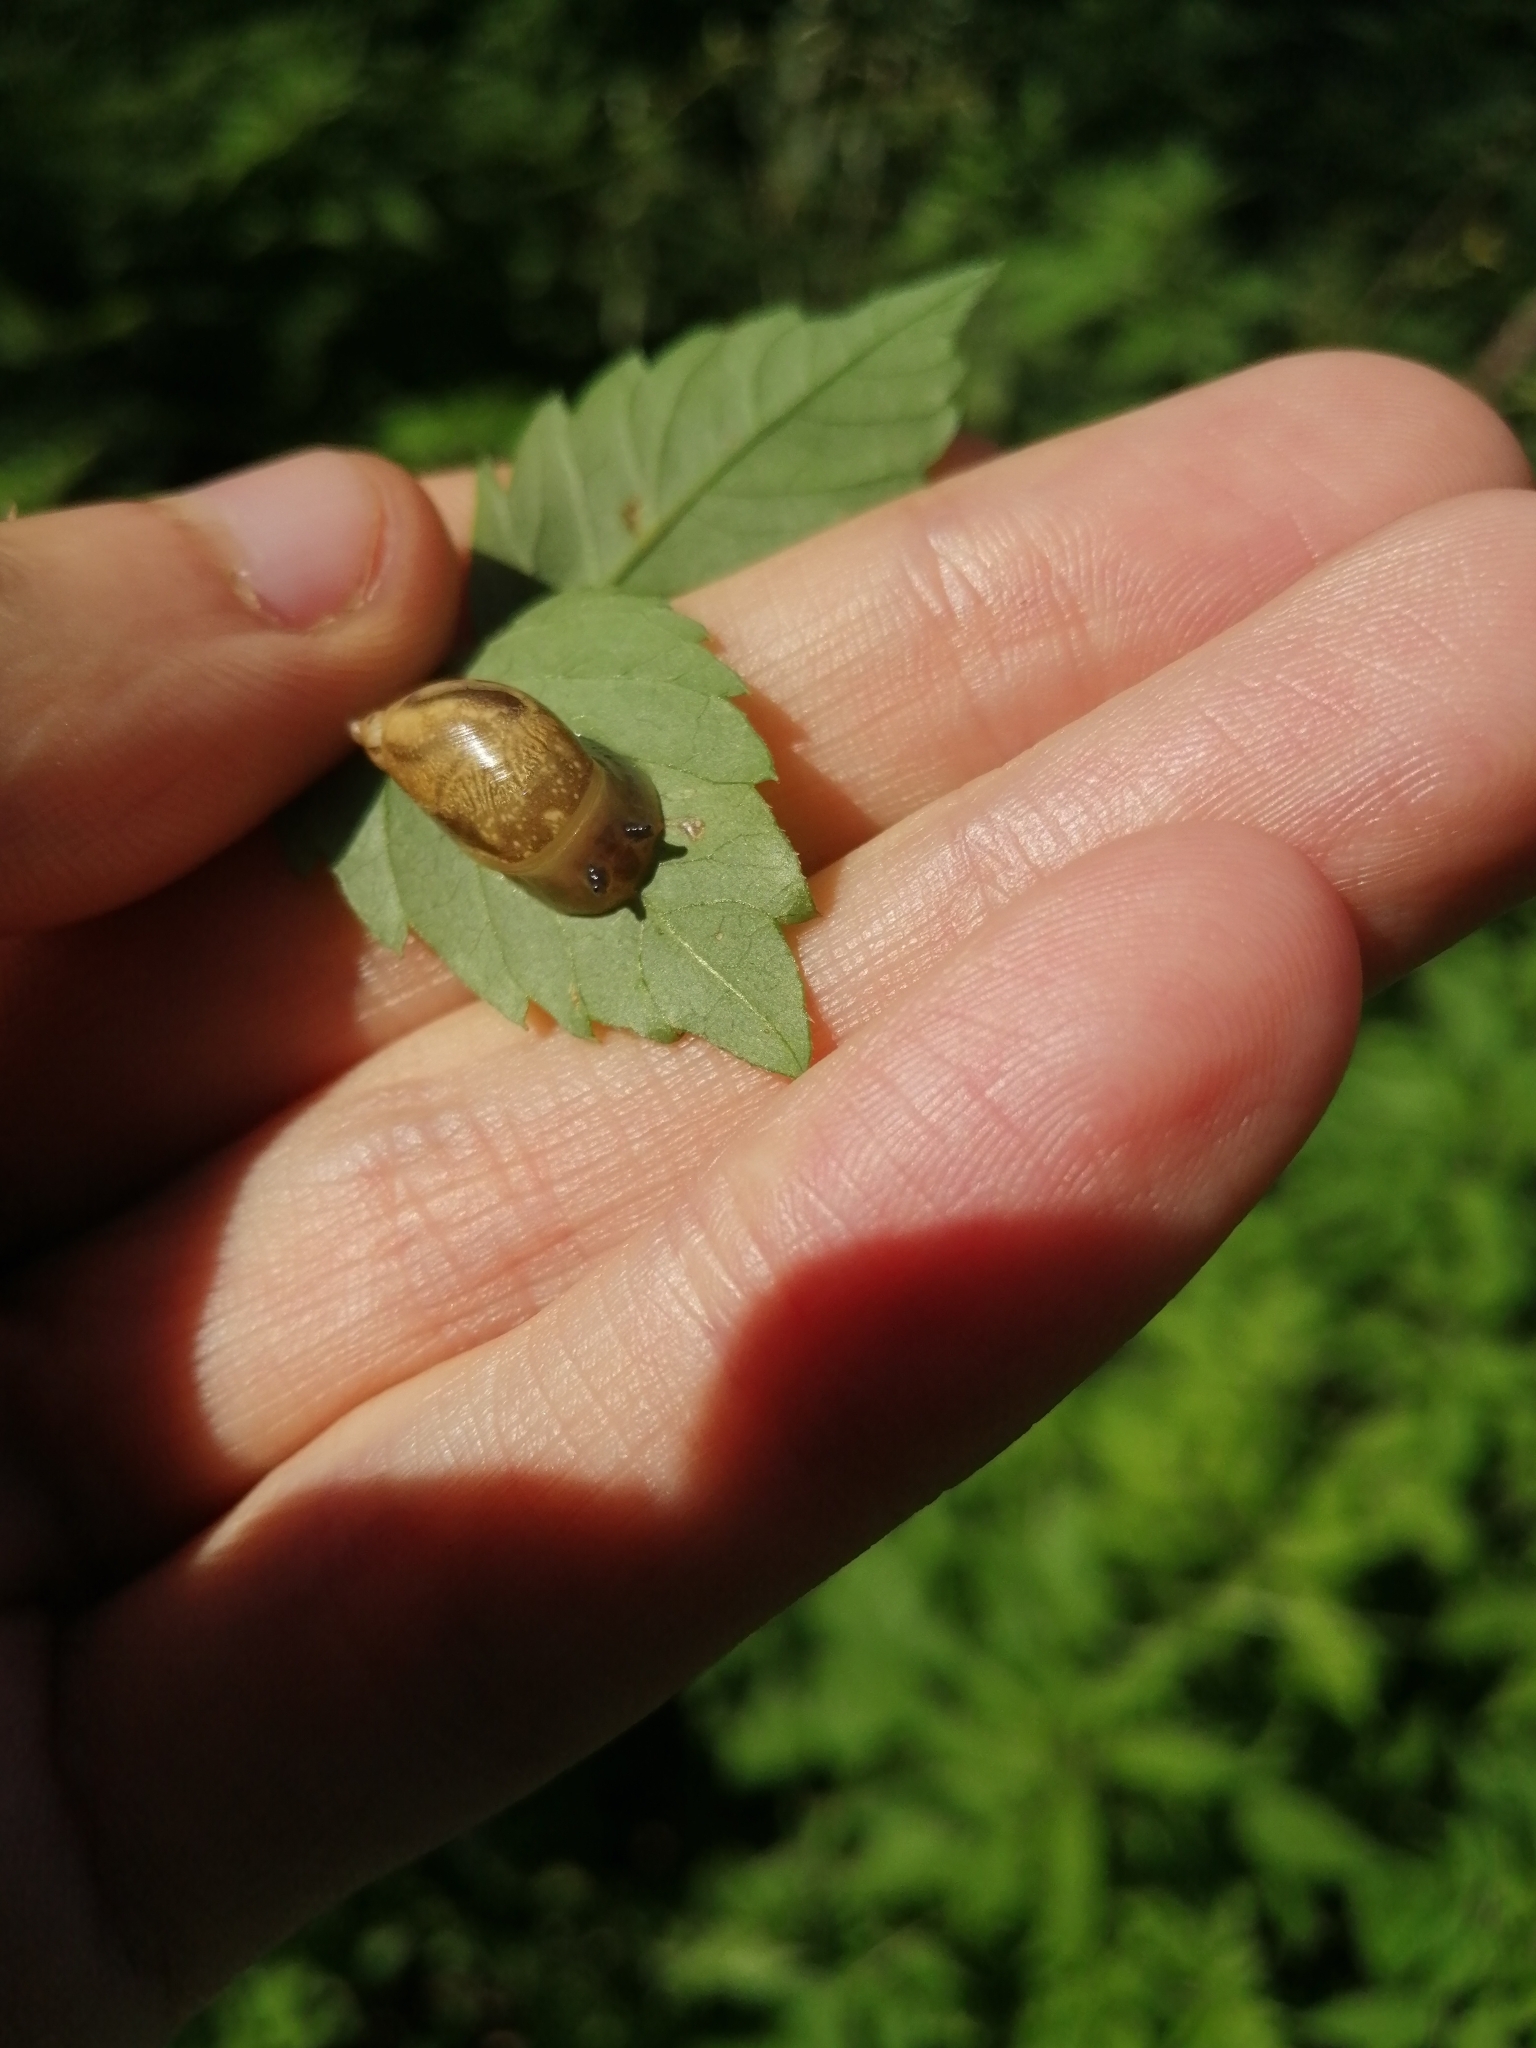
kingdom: Animalia
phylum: Mollusca
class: Gastropoda
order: Stylommatophora
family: Succineidae
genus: Succinea
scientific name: Succinea putris
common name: European ambersnail
